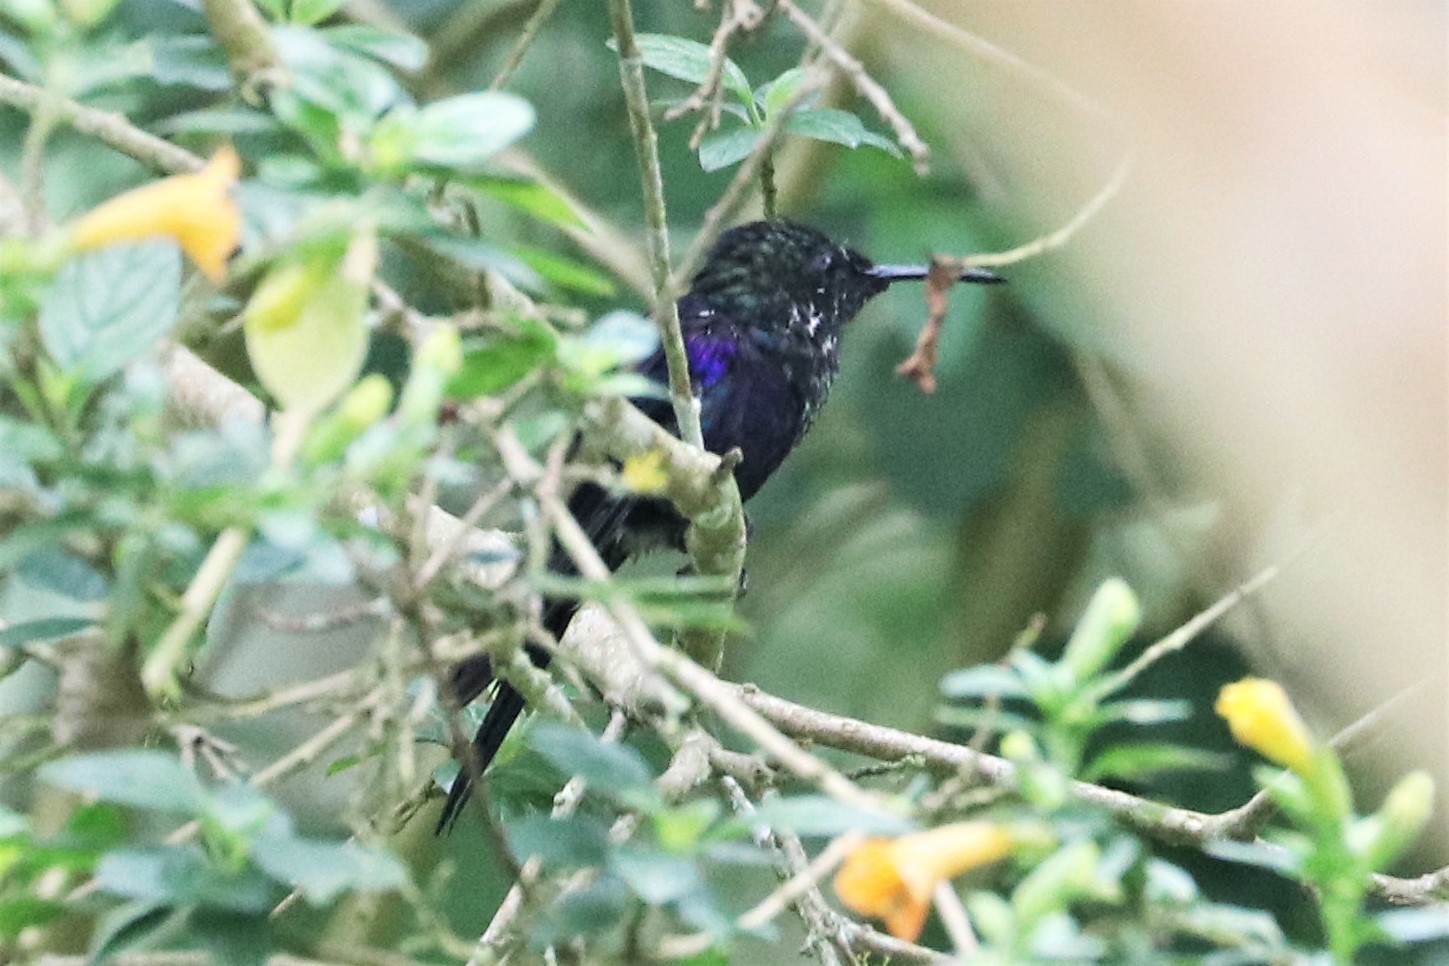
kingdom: Animalia
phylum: Chordata
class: Aves
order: Apodiformes
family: Trochilidae
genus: Thalurania
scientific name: Thalurania colombica
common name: Crowned woodnymph
